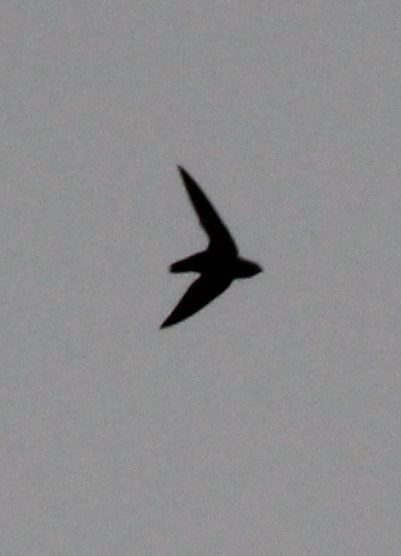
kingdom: Animalia
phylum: Chordata
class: Aves
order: Apodiformes
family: Apodidae
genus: Chaetura
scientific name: Chaetura pelagica
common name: Chimney swift
